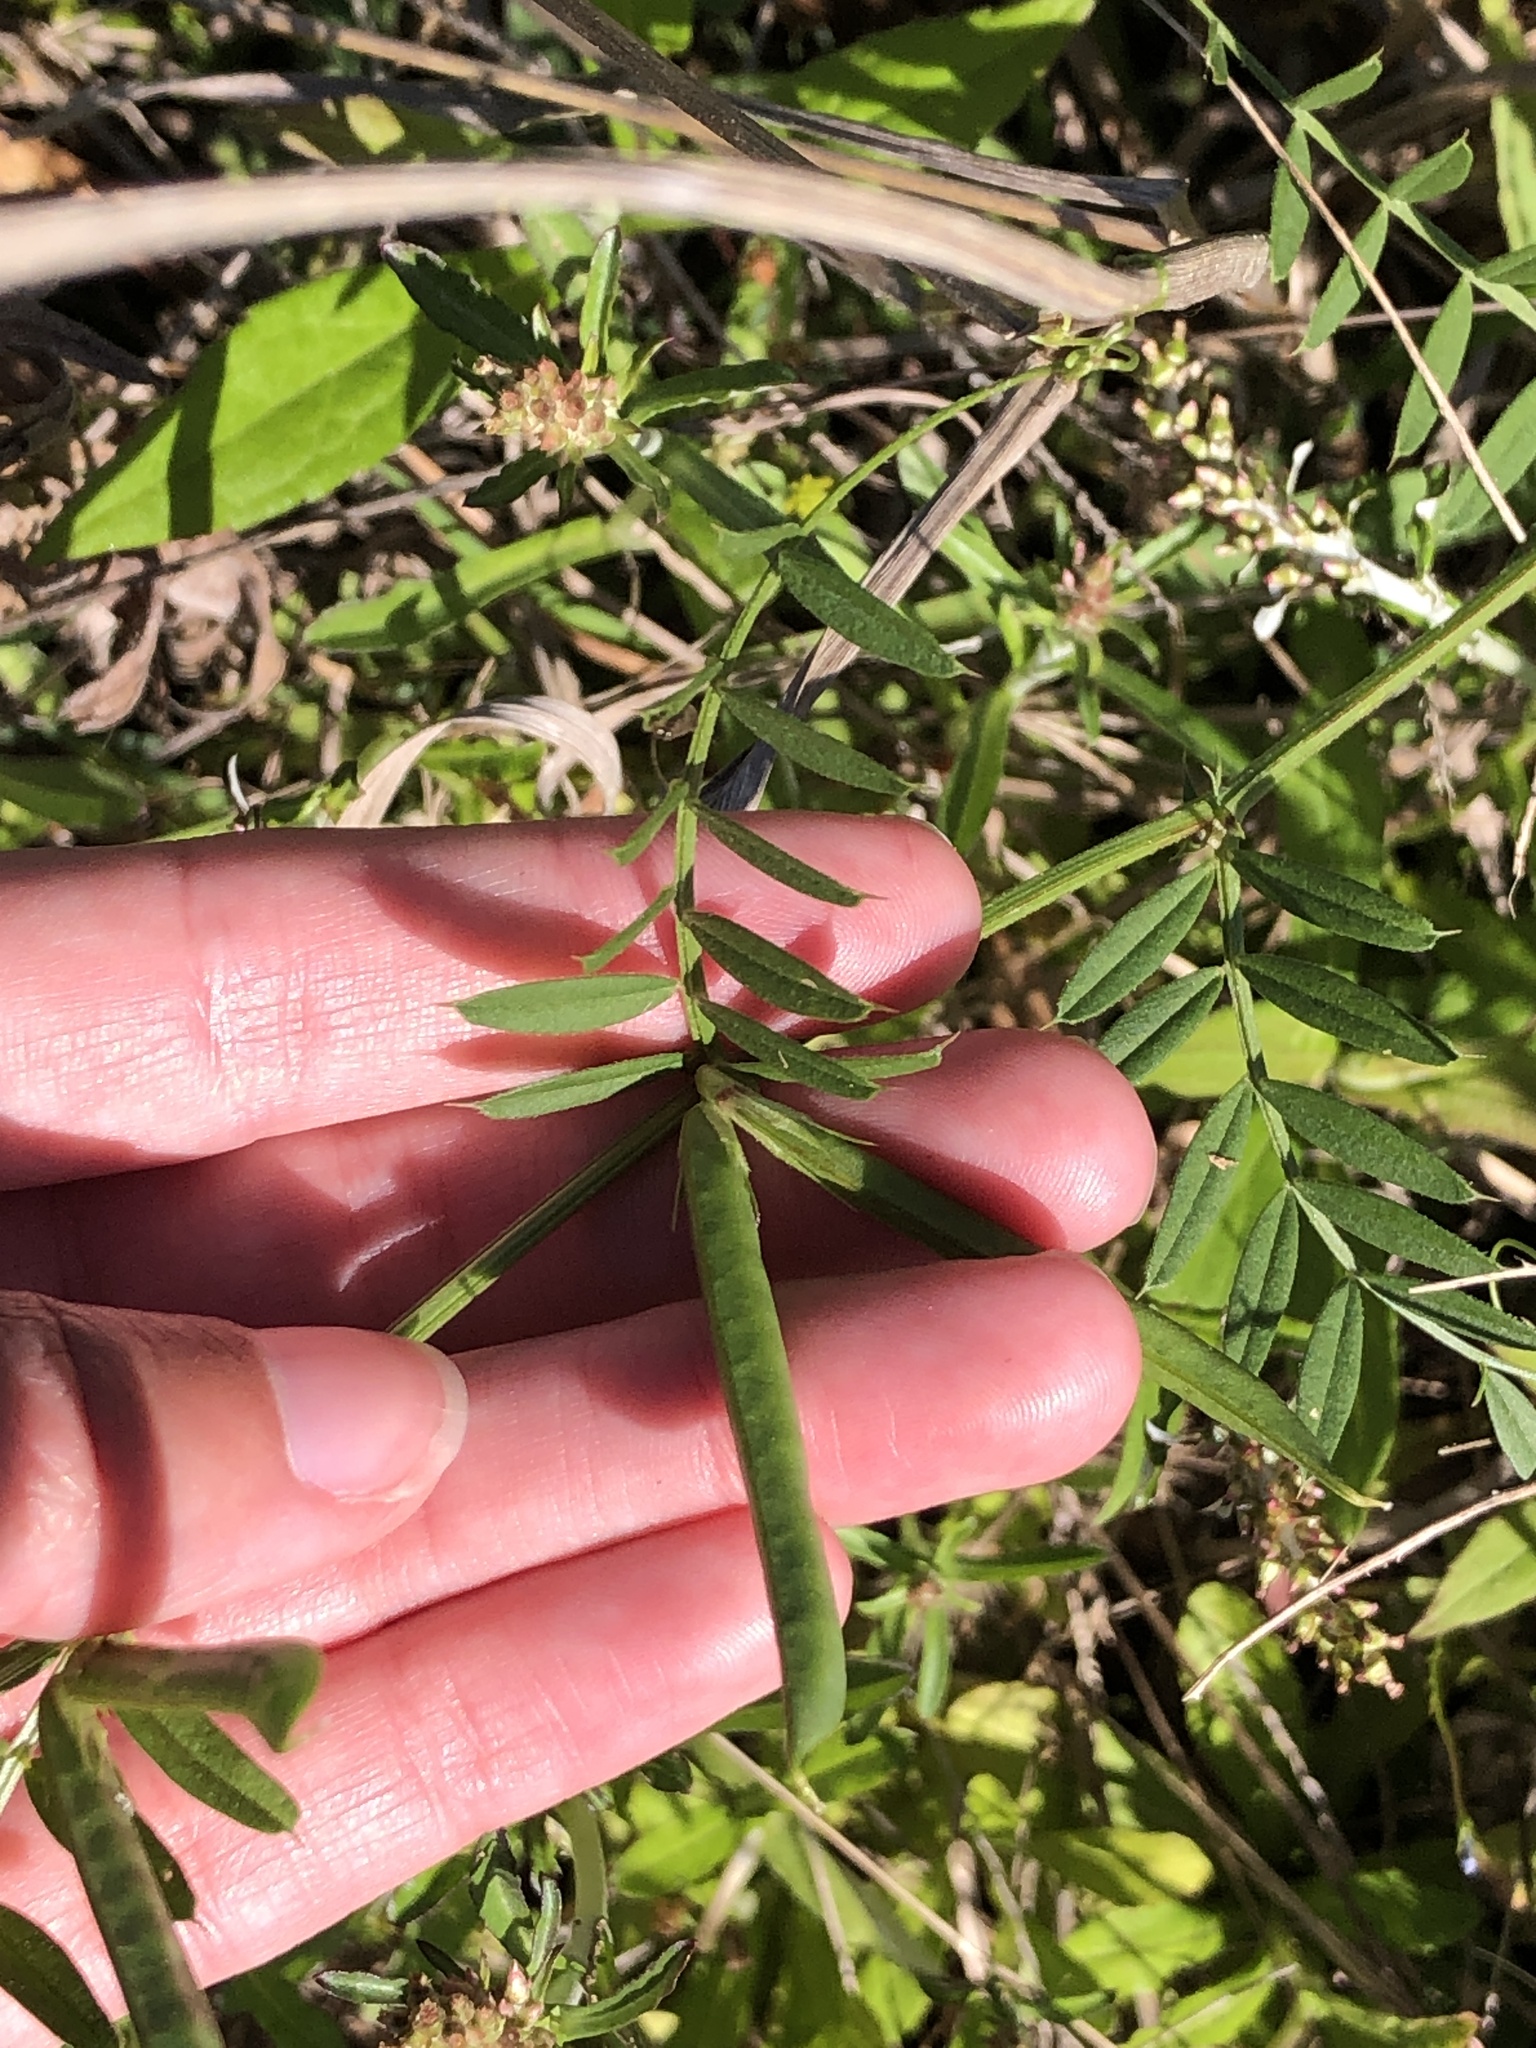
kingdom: Plantae
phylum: Tracheophyta
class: Magnoliopsida
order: Fabales
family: Fabaceae
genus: Vicia
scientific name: Vicia sativa
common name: Garden vetch
